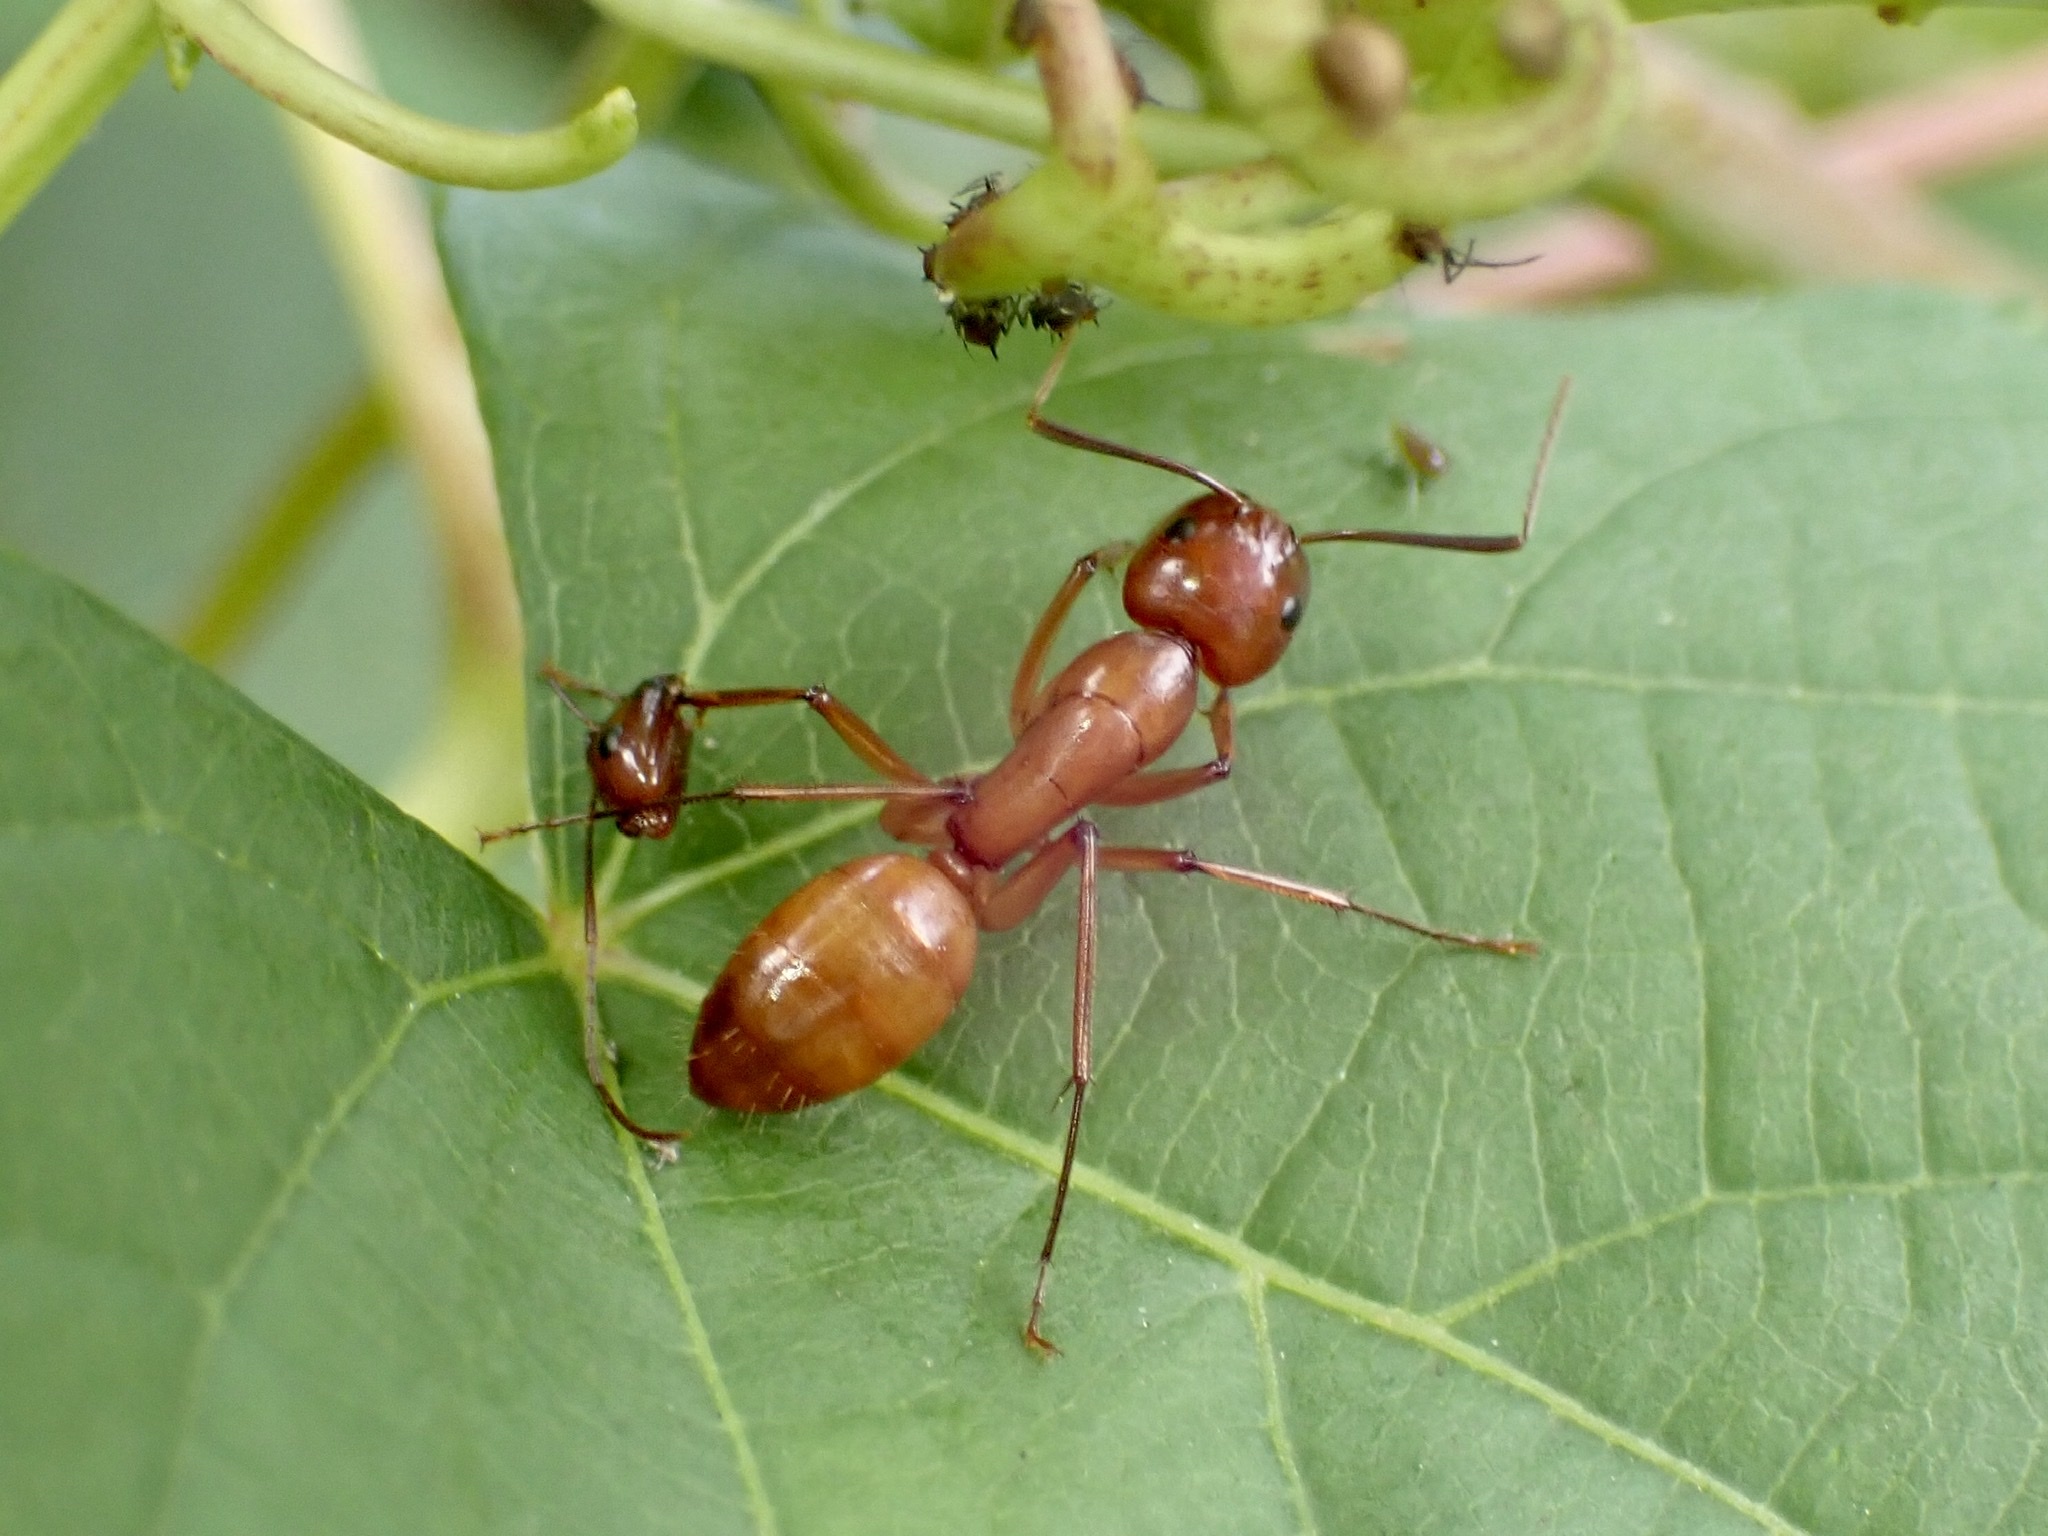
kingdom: Animalia
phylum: Arthropoda
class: Insecta
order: Hymenoptera
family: Formicidae
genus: Camponotus
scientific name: Camponotus castaneus
